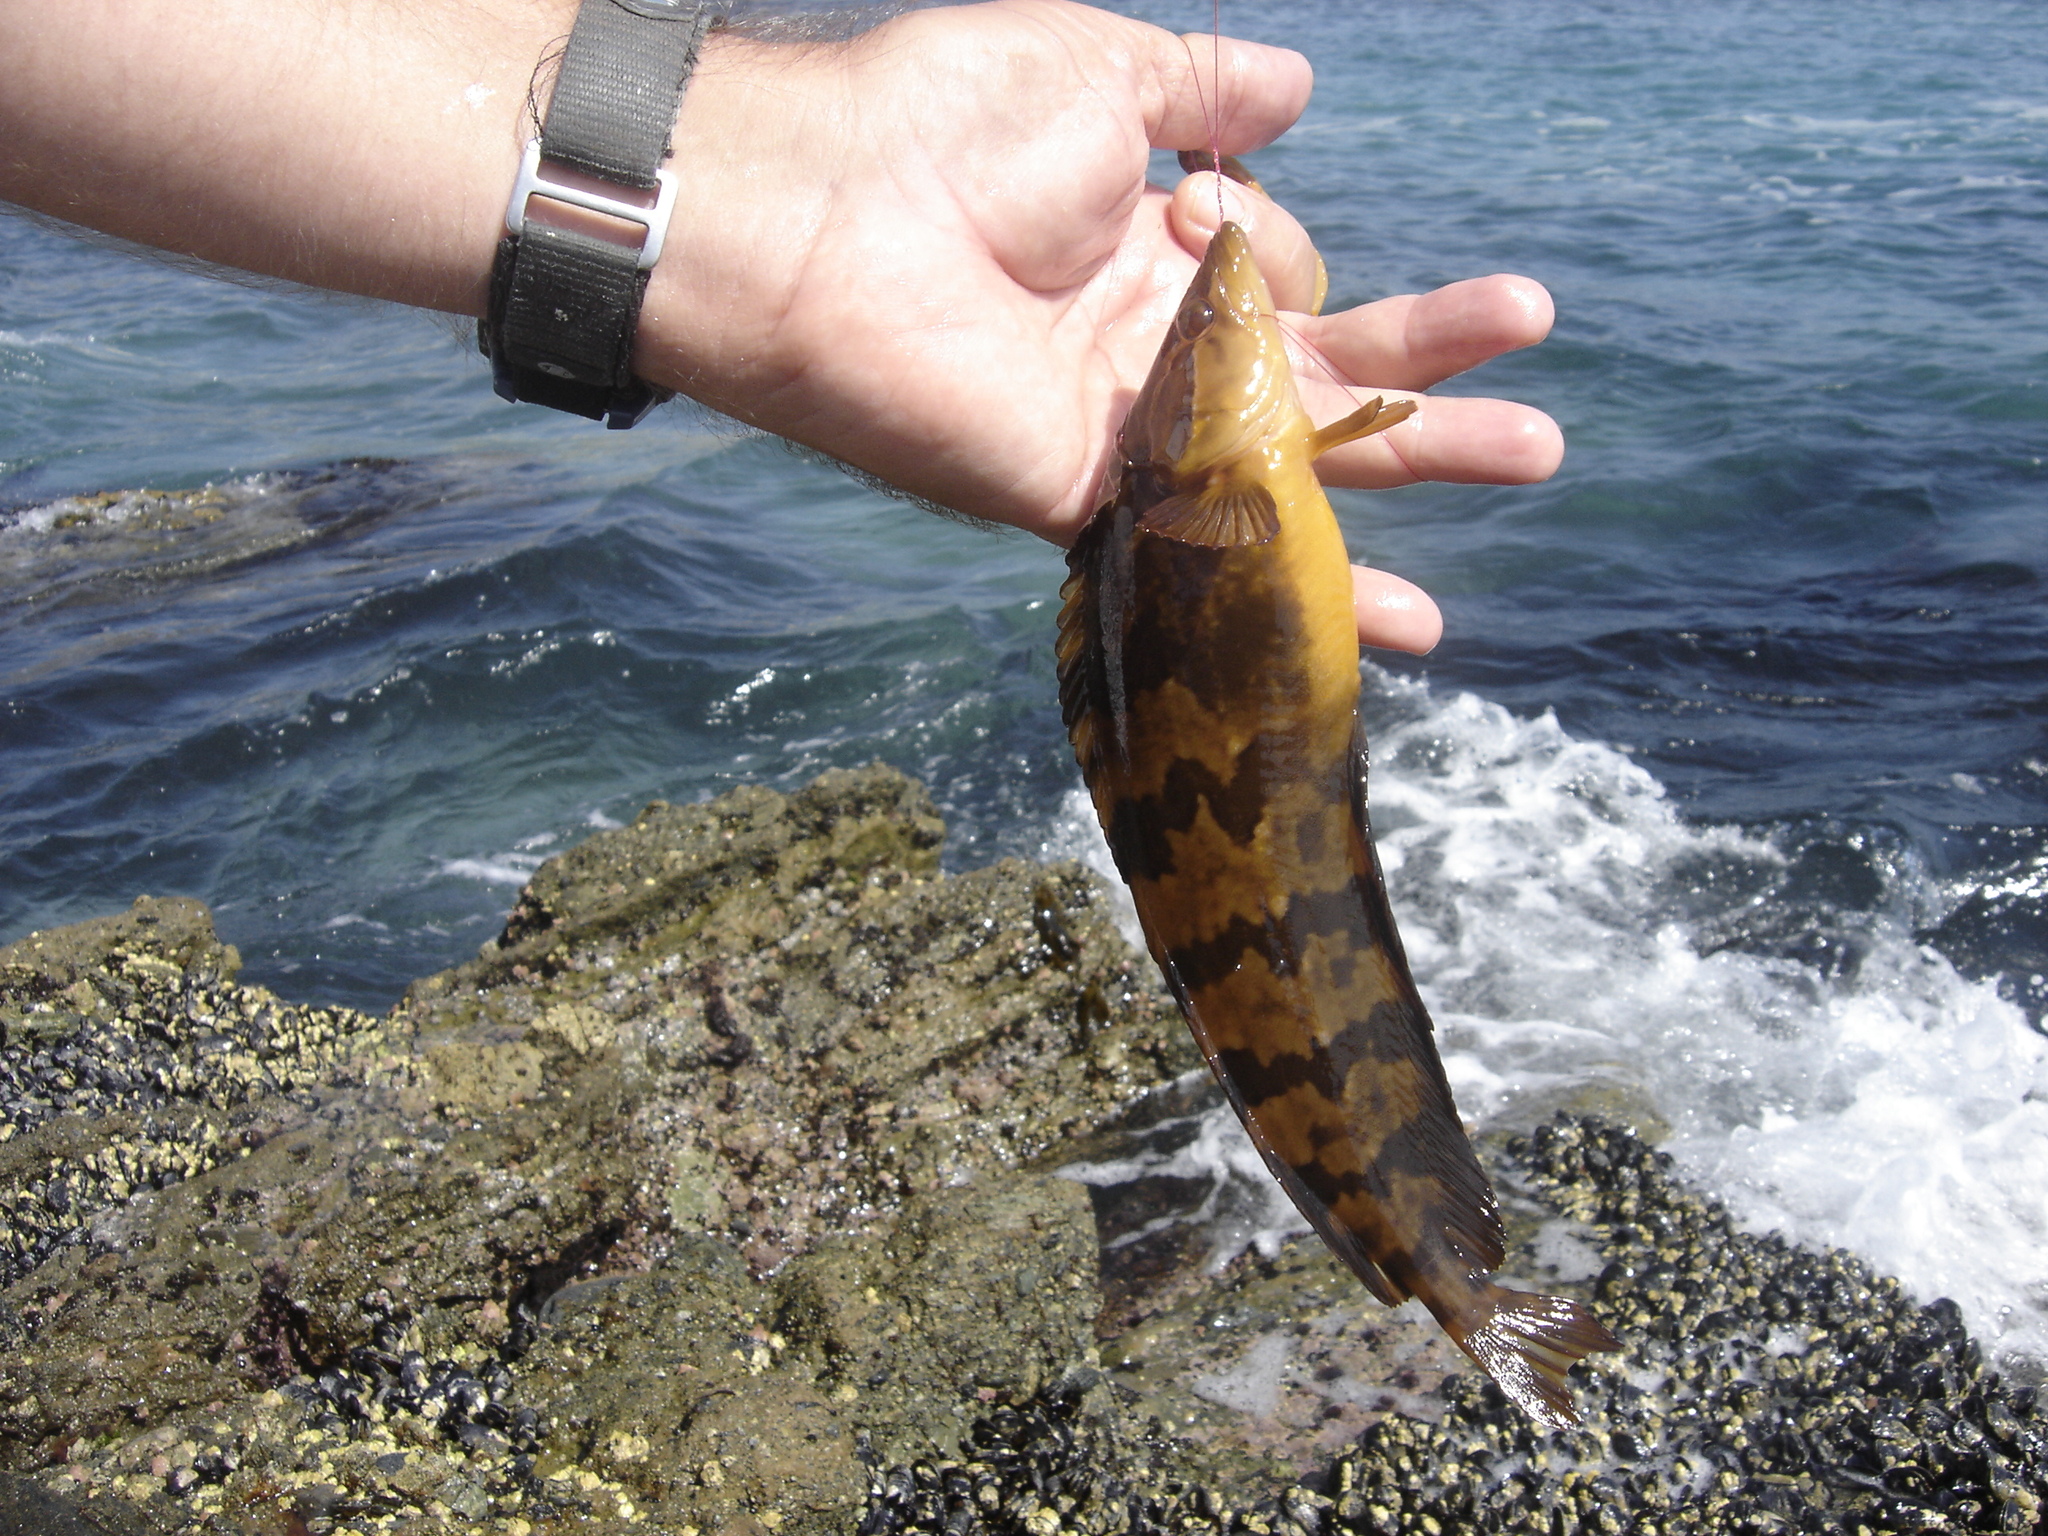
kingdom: Animalia
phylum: Chordata
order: Perciformes
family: Clinidae
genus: Heterostichus
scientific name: Heterostichus rostratus
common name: Giant kelpfish
